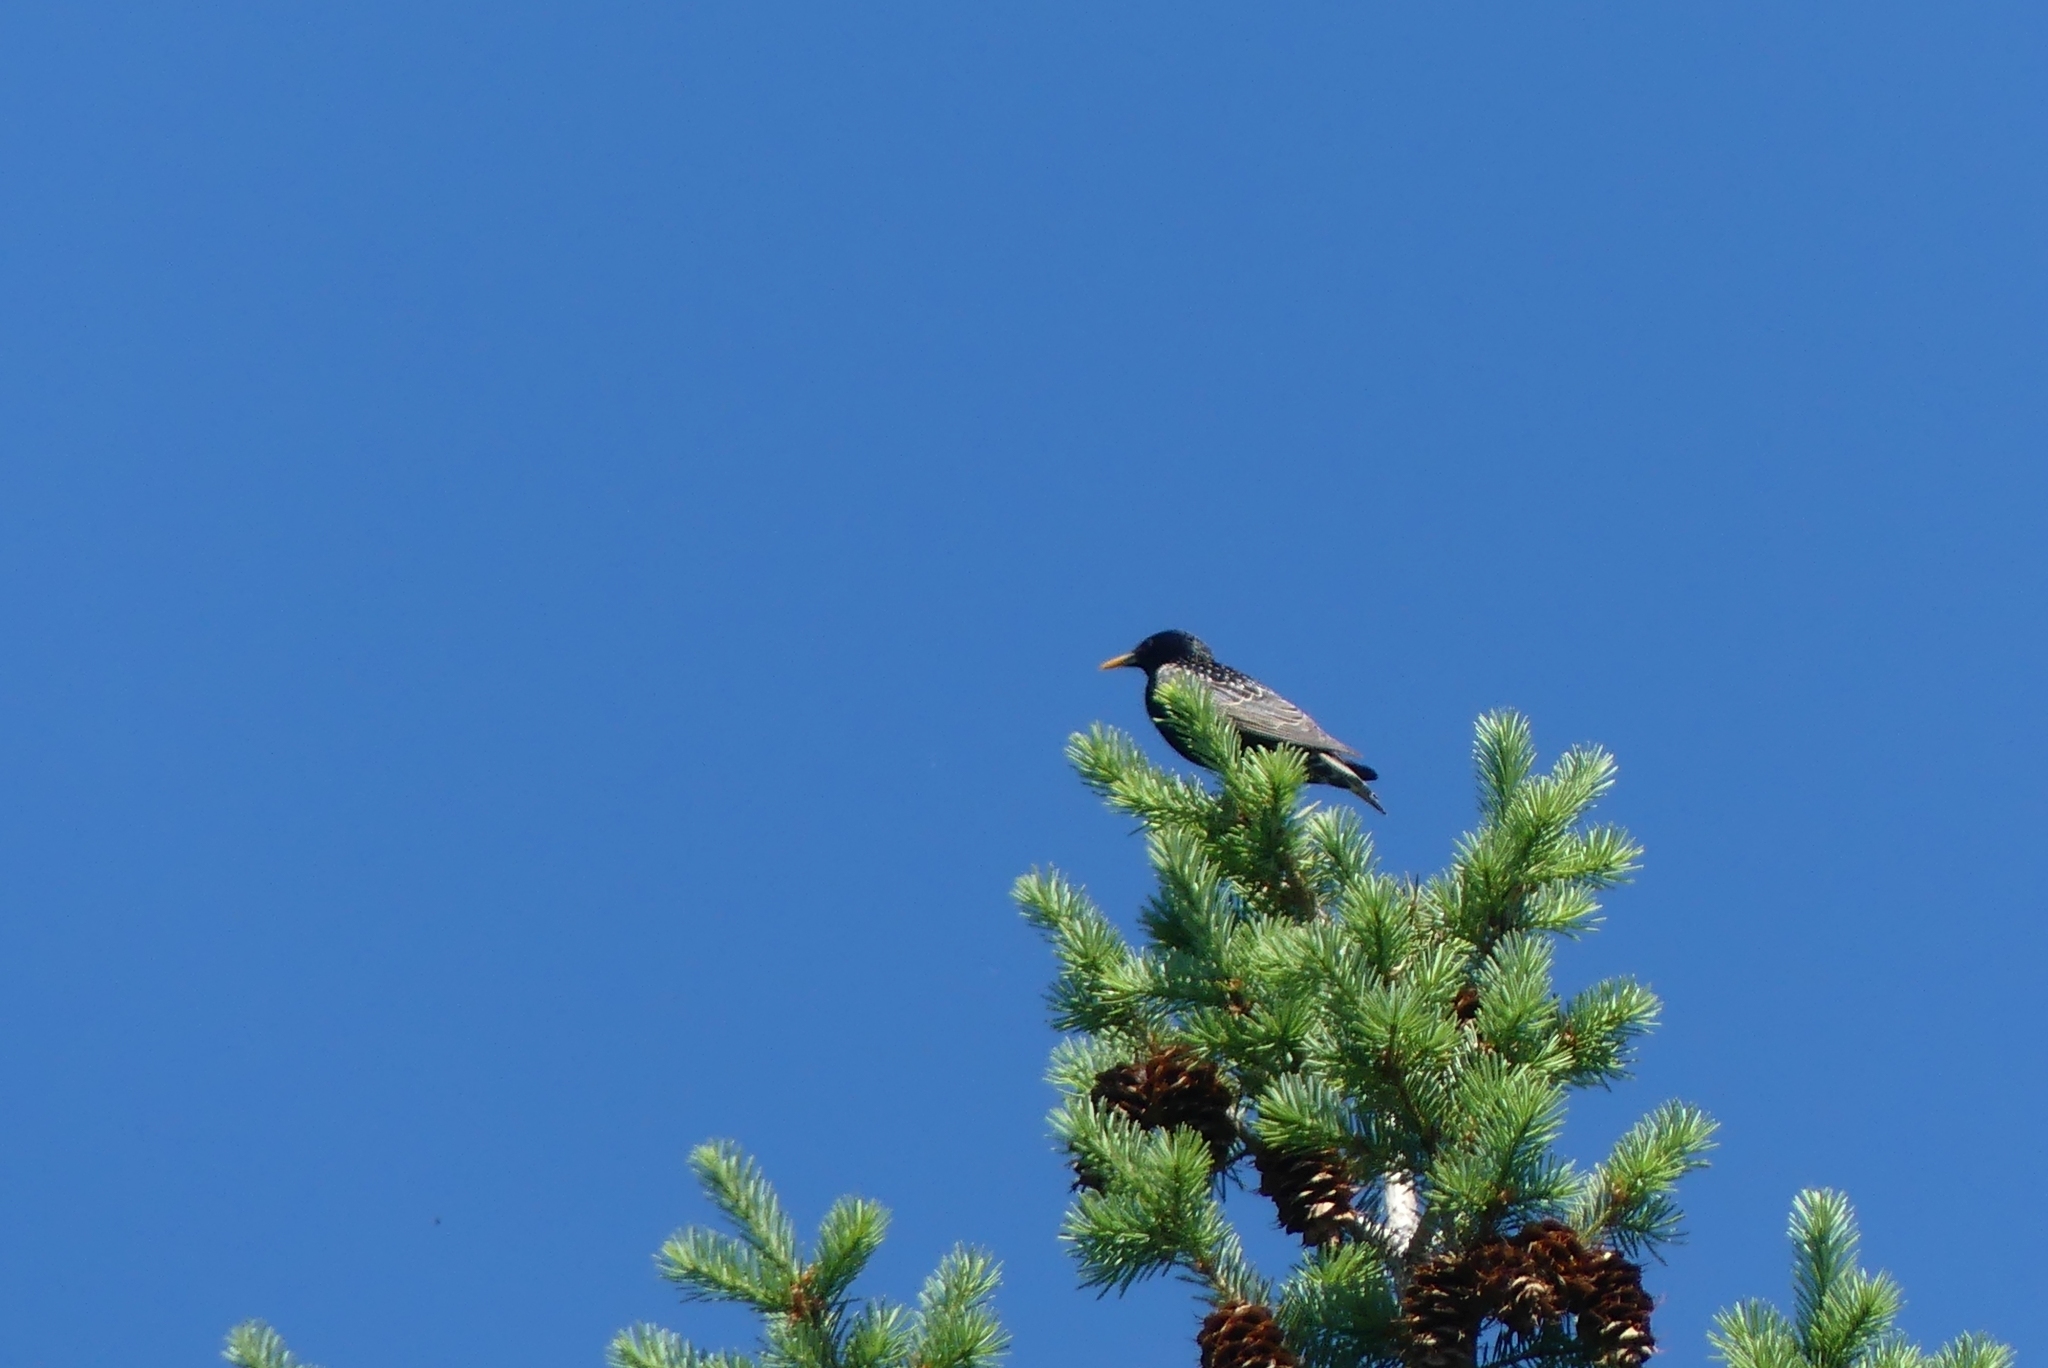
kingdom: Animalia
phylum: Chordata
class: Aves
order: Passeriformes
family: Sturnidae
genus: Sturnus
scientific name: Sturnus vulgaris
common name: Common starling
